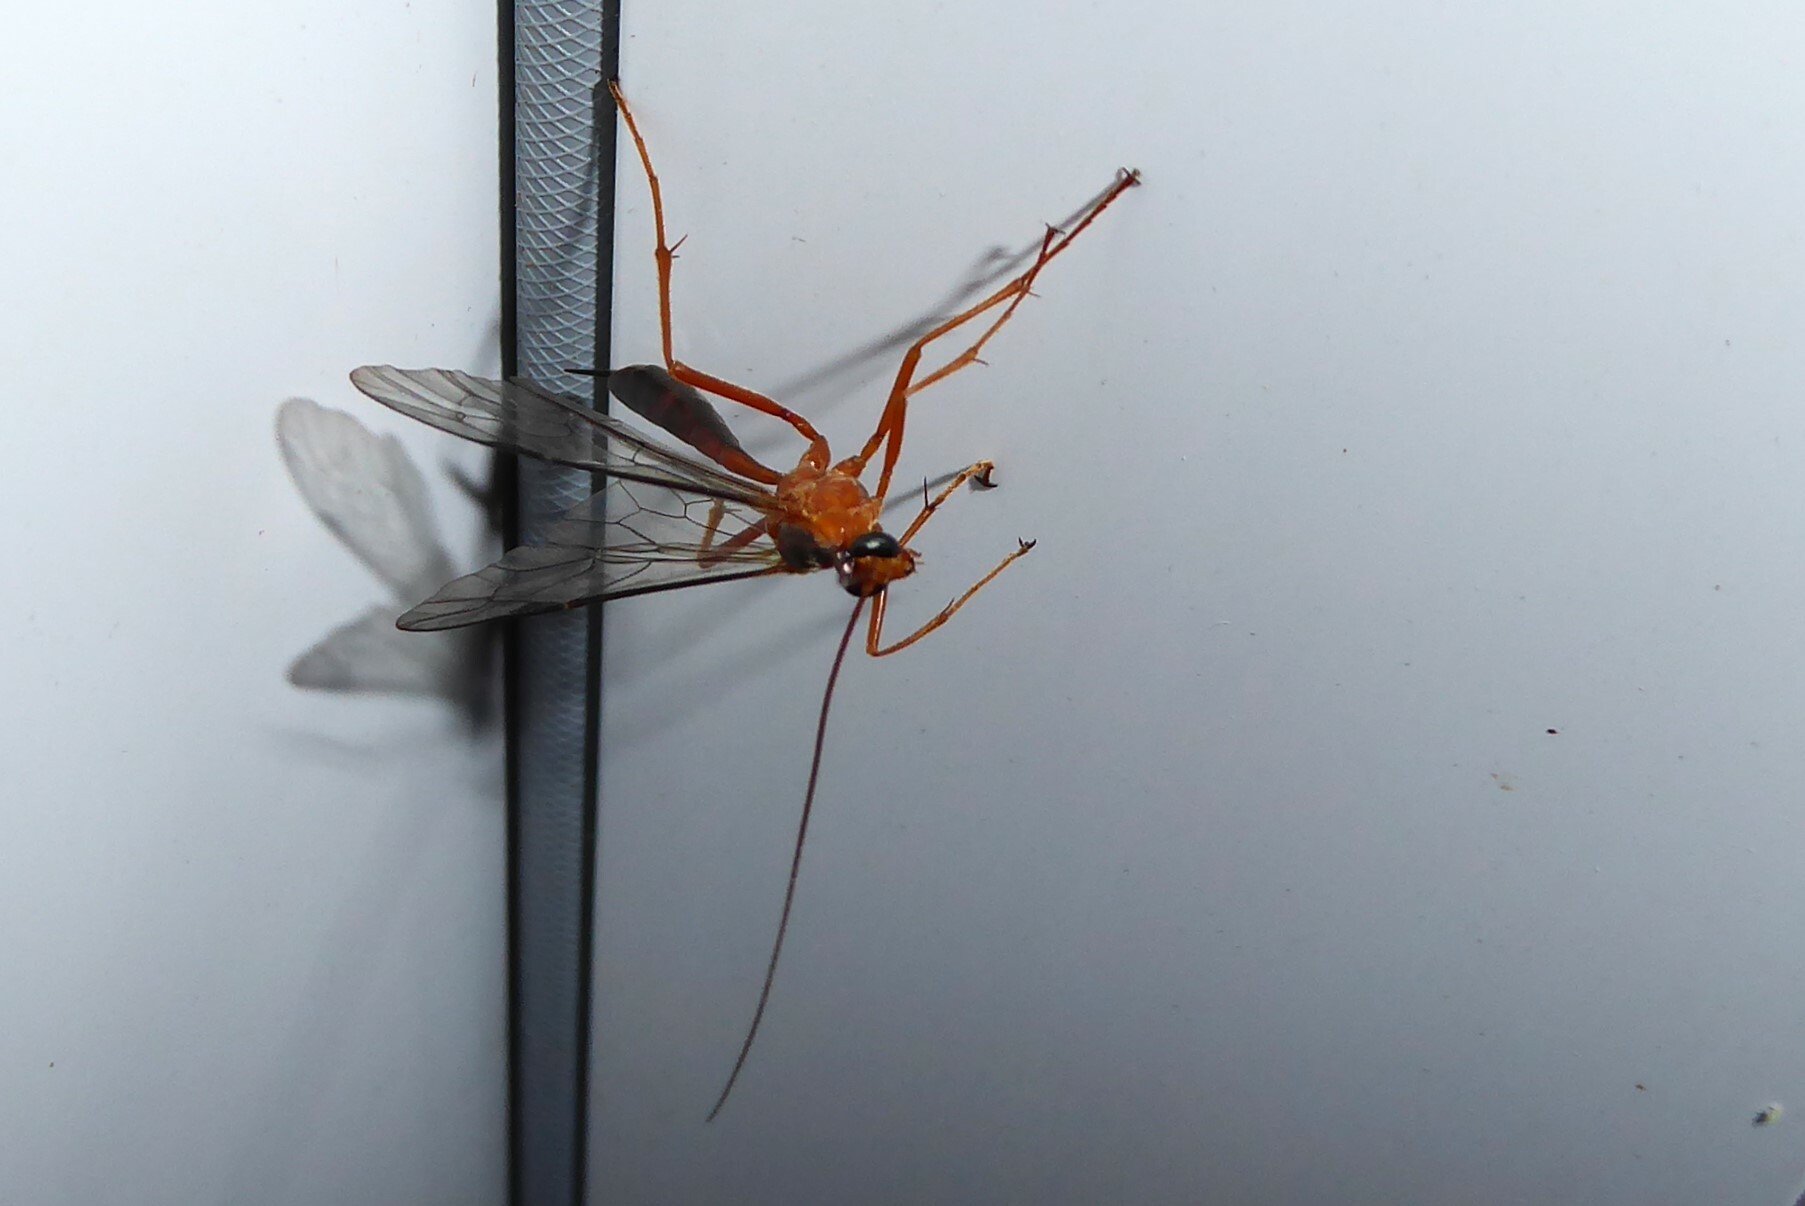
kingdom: Animalia
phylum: Arthropoda
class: Insecta
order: Hymenoptera
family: Ichneumonidae
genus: Netelia
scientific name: Netelia ephippiata
